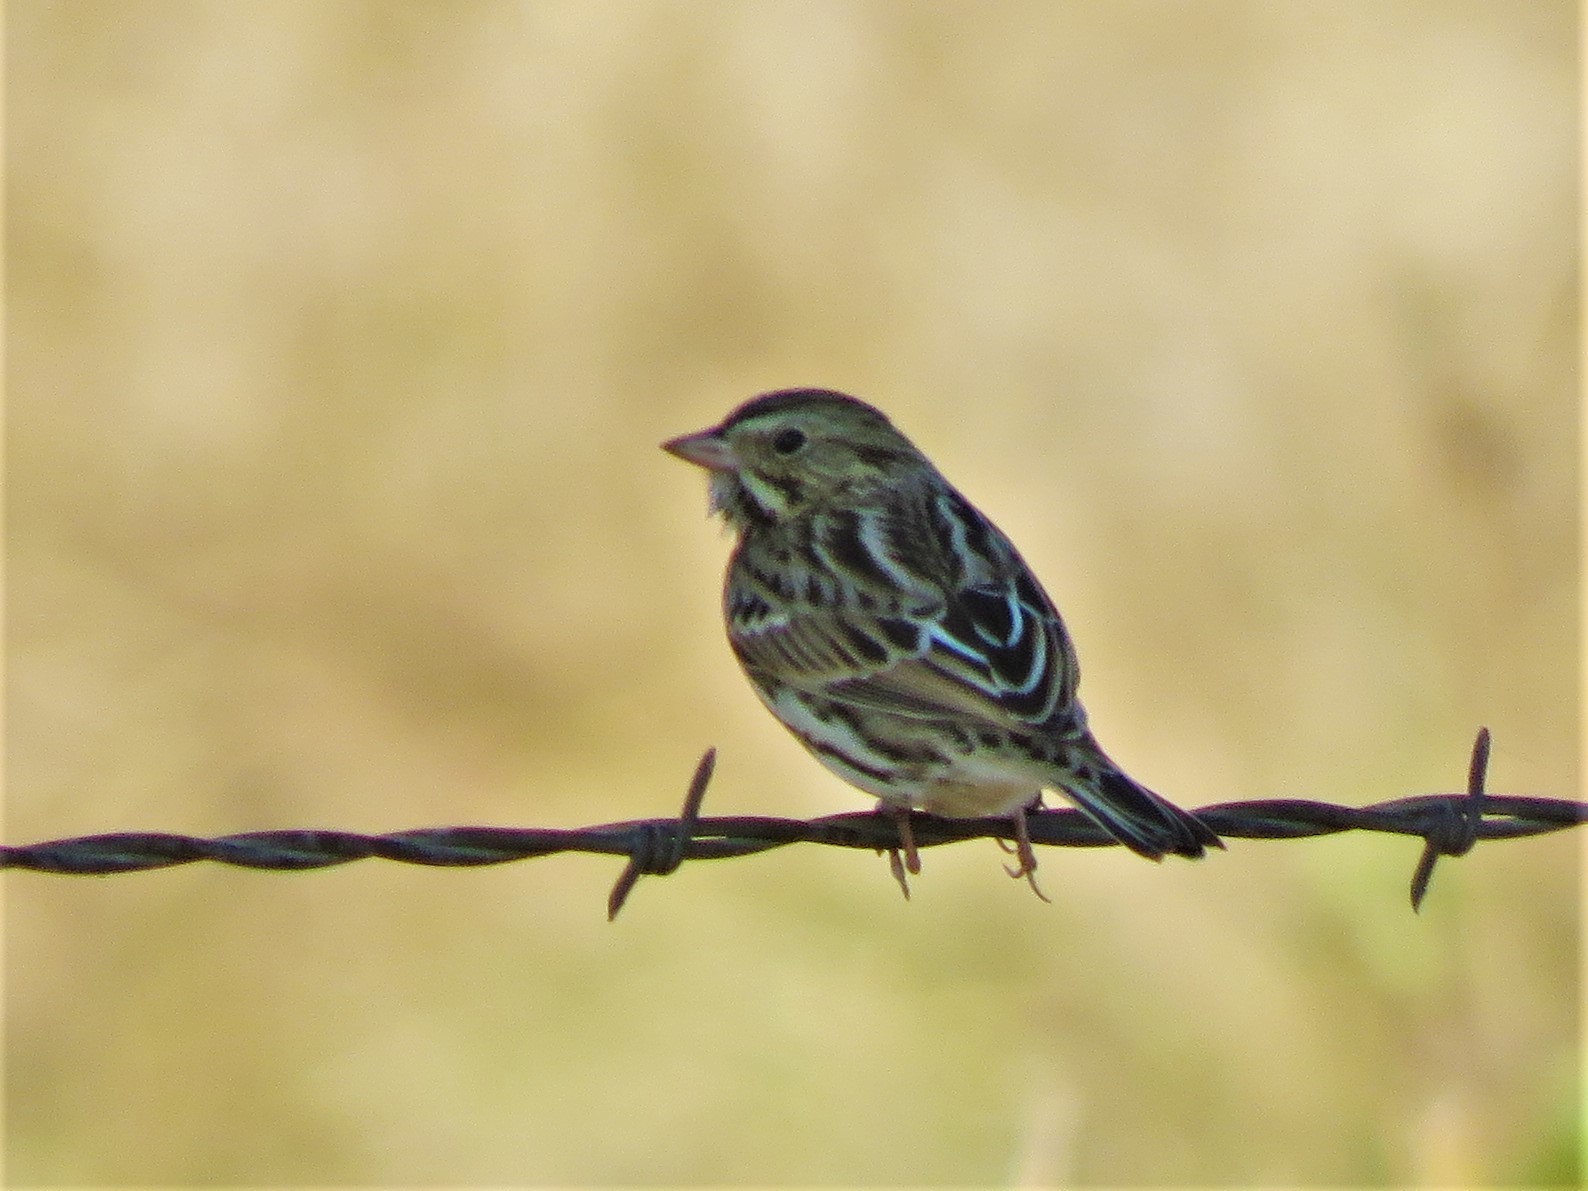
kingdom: Animalia
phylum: Chordata
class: Aves
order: Passeriformes
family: Passerellidae
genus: Passerculus
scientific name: Passerculus sandwichensis
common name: Savannah sparrow
